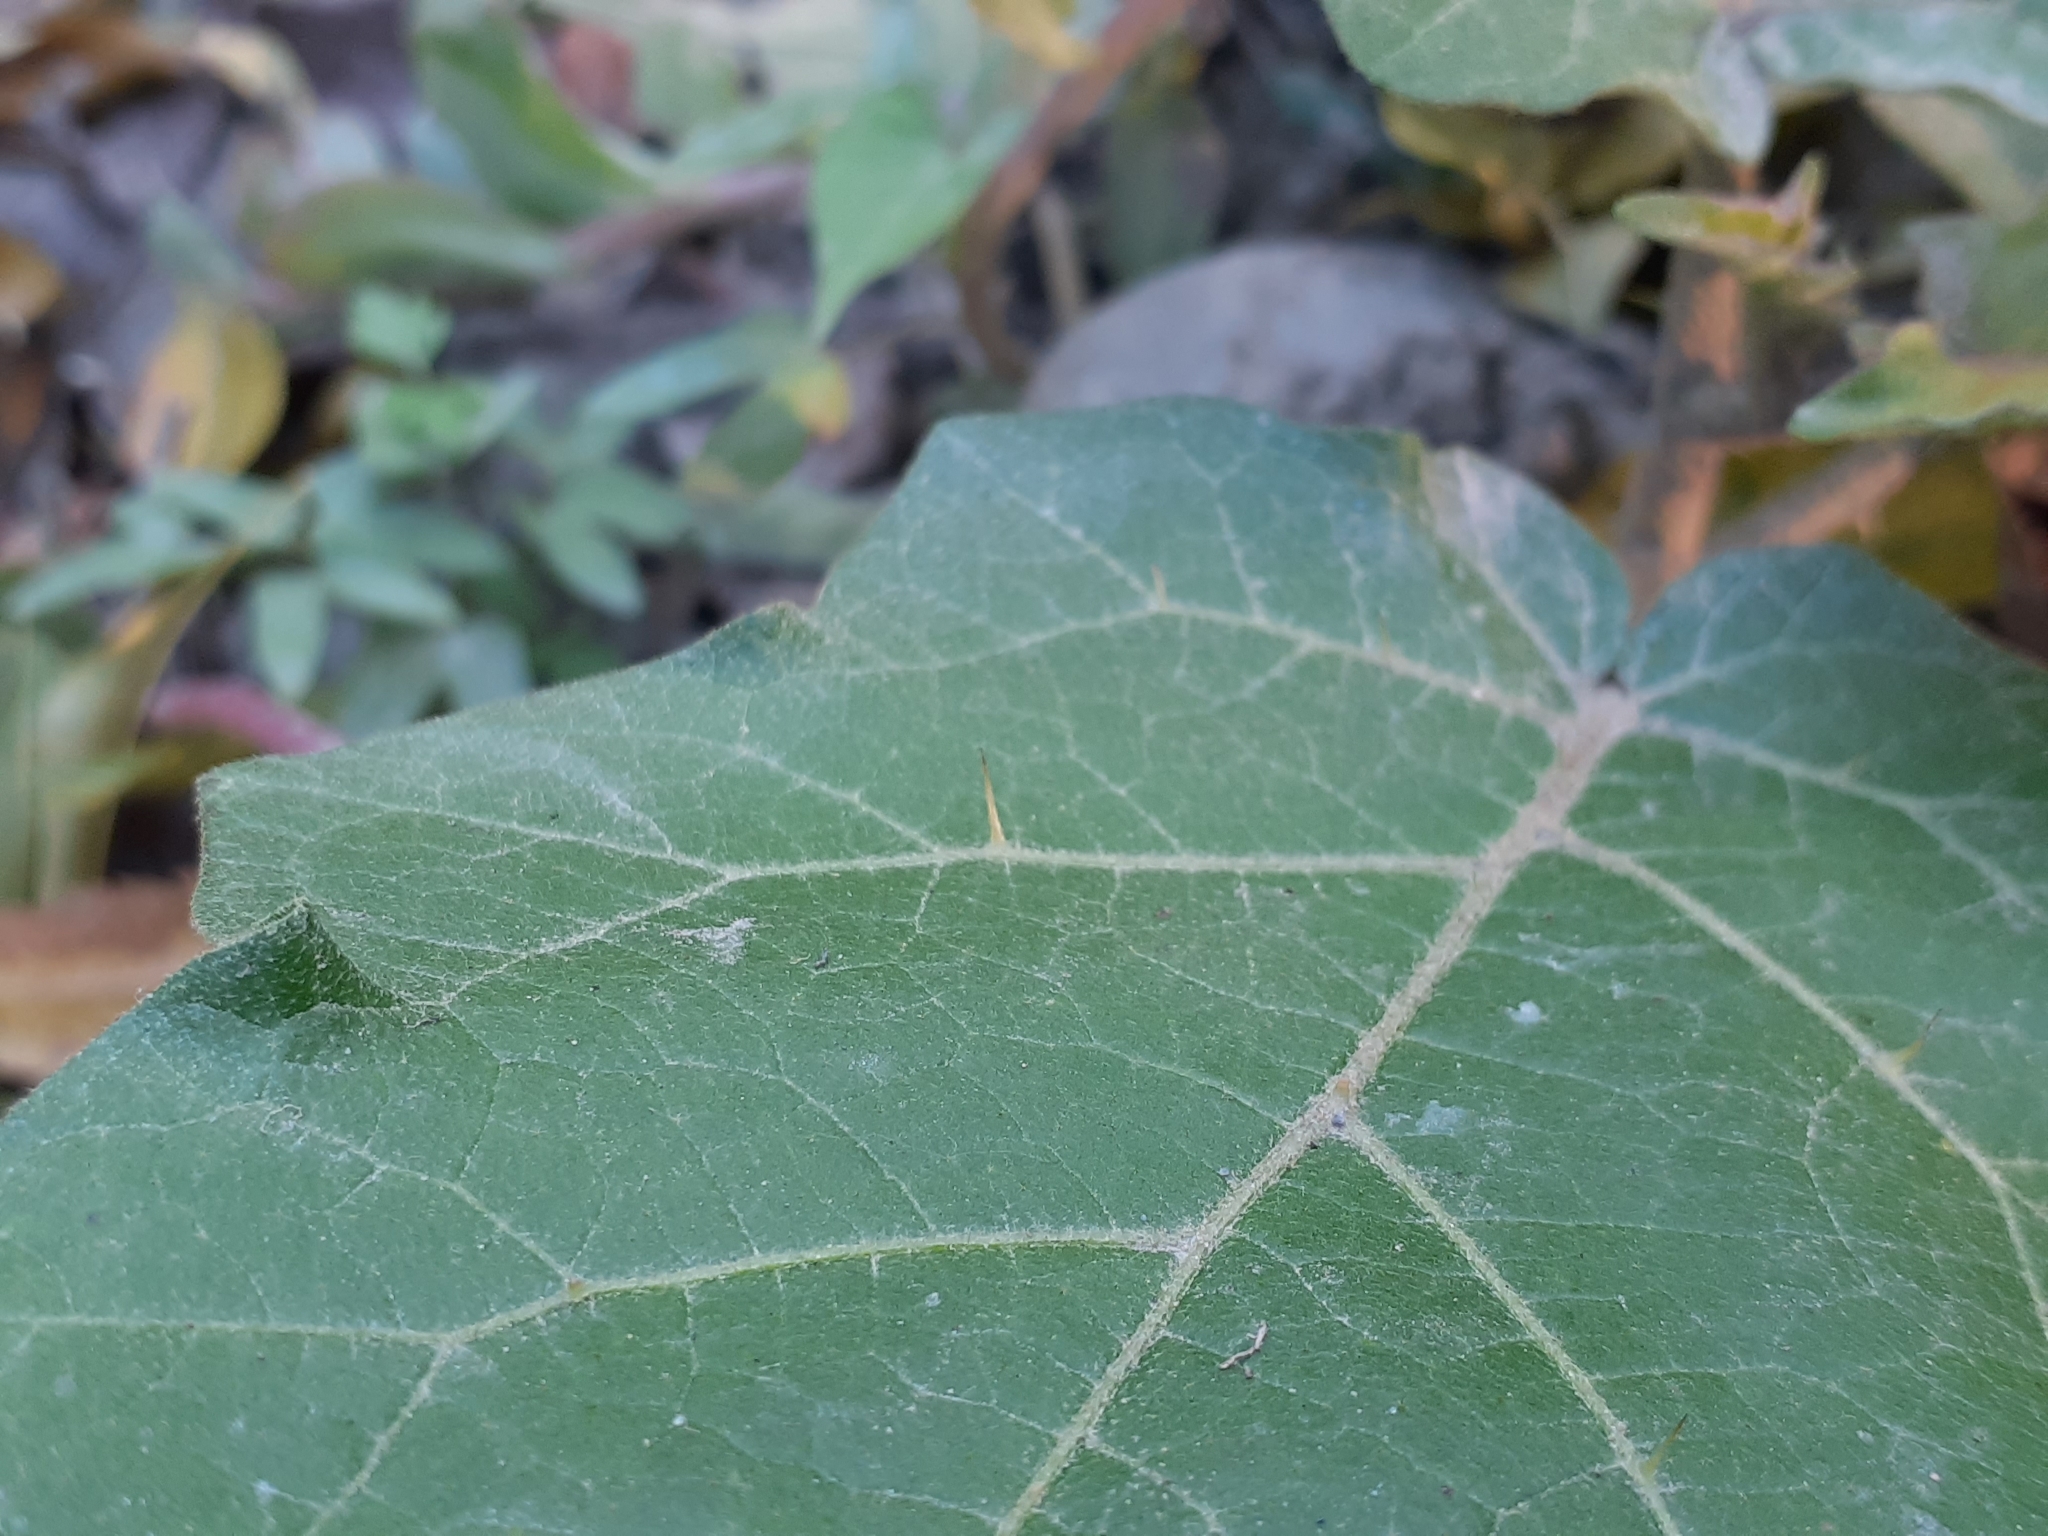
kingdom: Plantae
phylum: Tracheophyta
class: Magnoliopsida
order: Solanales
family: Solanaceae
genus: Solanum
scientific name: Solanum violaceum
